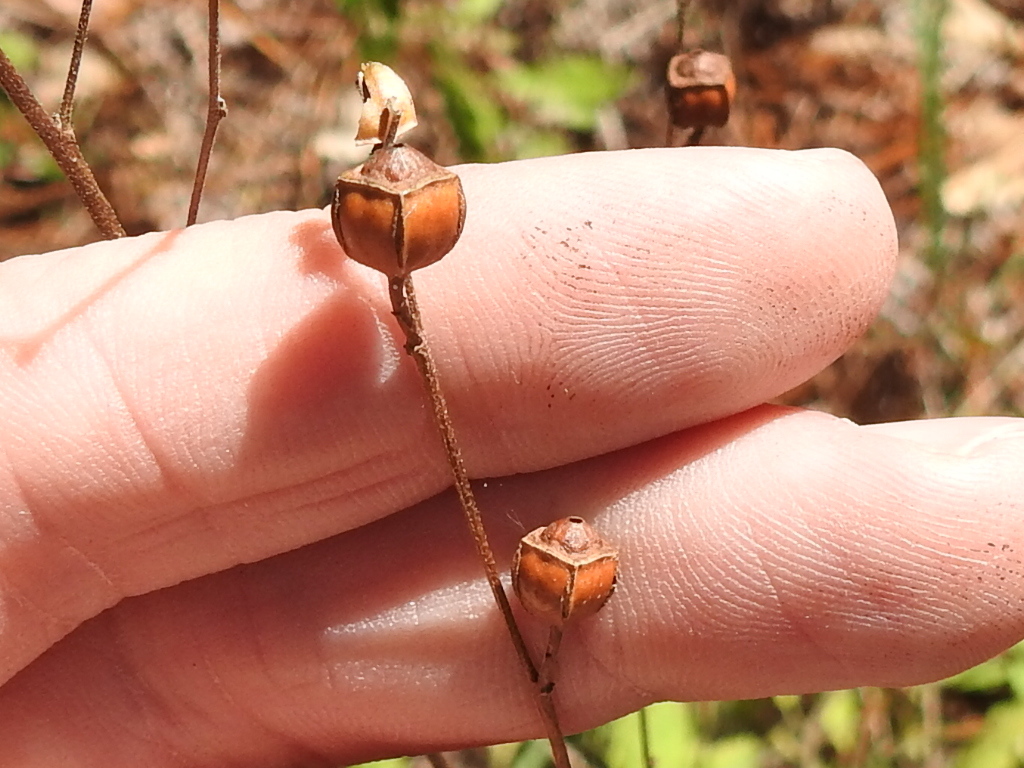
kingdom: Plantae
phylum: Tracheophyta
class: Magnoliopsida
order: Myrtales
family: Onagraceae
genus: Ludwigia
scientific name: Ludwigia alternifolia
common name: Rattlebox
